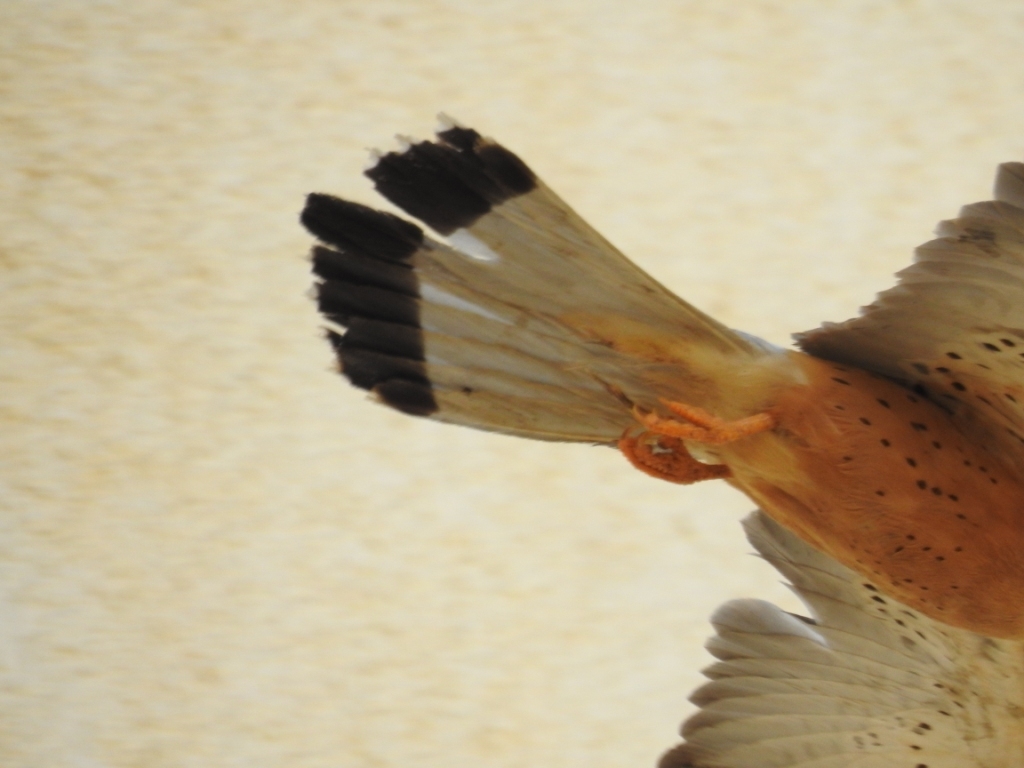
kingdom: Animalia
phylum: Chordata
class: Aves
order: Falconiformes
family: Falconidae
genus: Falco
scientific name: Falco naumanni
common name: Lesser kestrel
